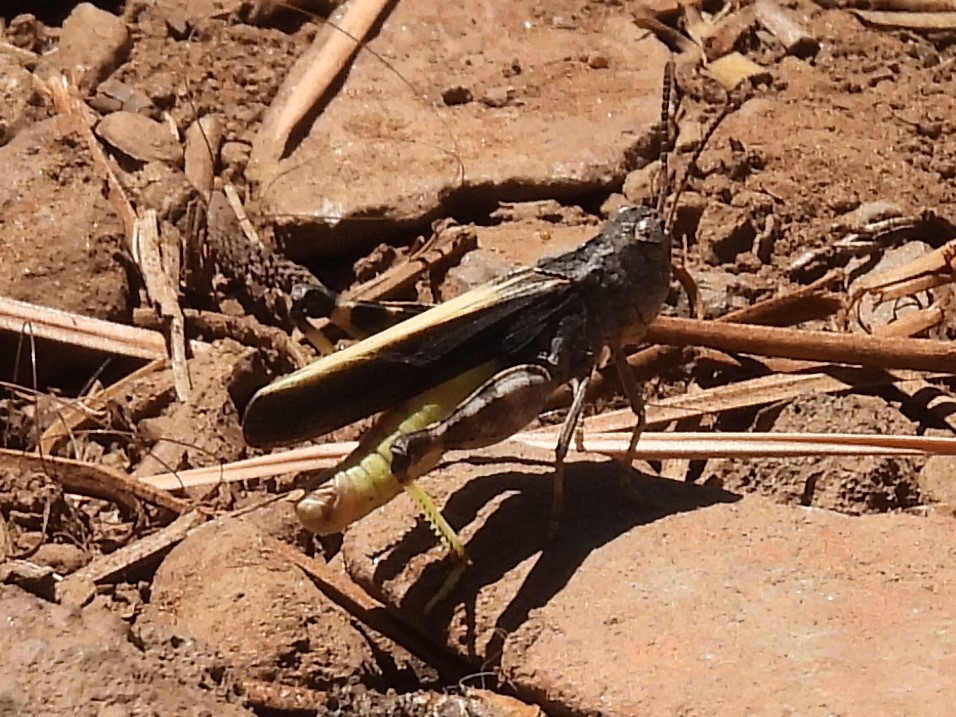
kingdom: Animalia
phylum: Arthropoda
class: Insecta
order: Orthoptera
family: Acrididae
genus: Arphia
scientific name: Arphia conspersa
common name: Speckle-winged rangeland grasshopper
